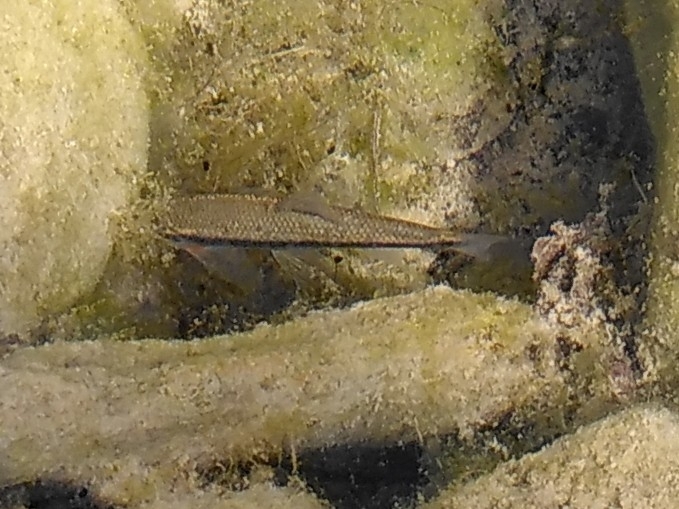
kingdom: Animalia
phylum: Chordata
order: Cypriniformes
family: Cyprinidae
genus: Telestes
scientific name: Telestes muticellus
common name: Italian riffle dace
